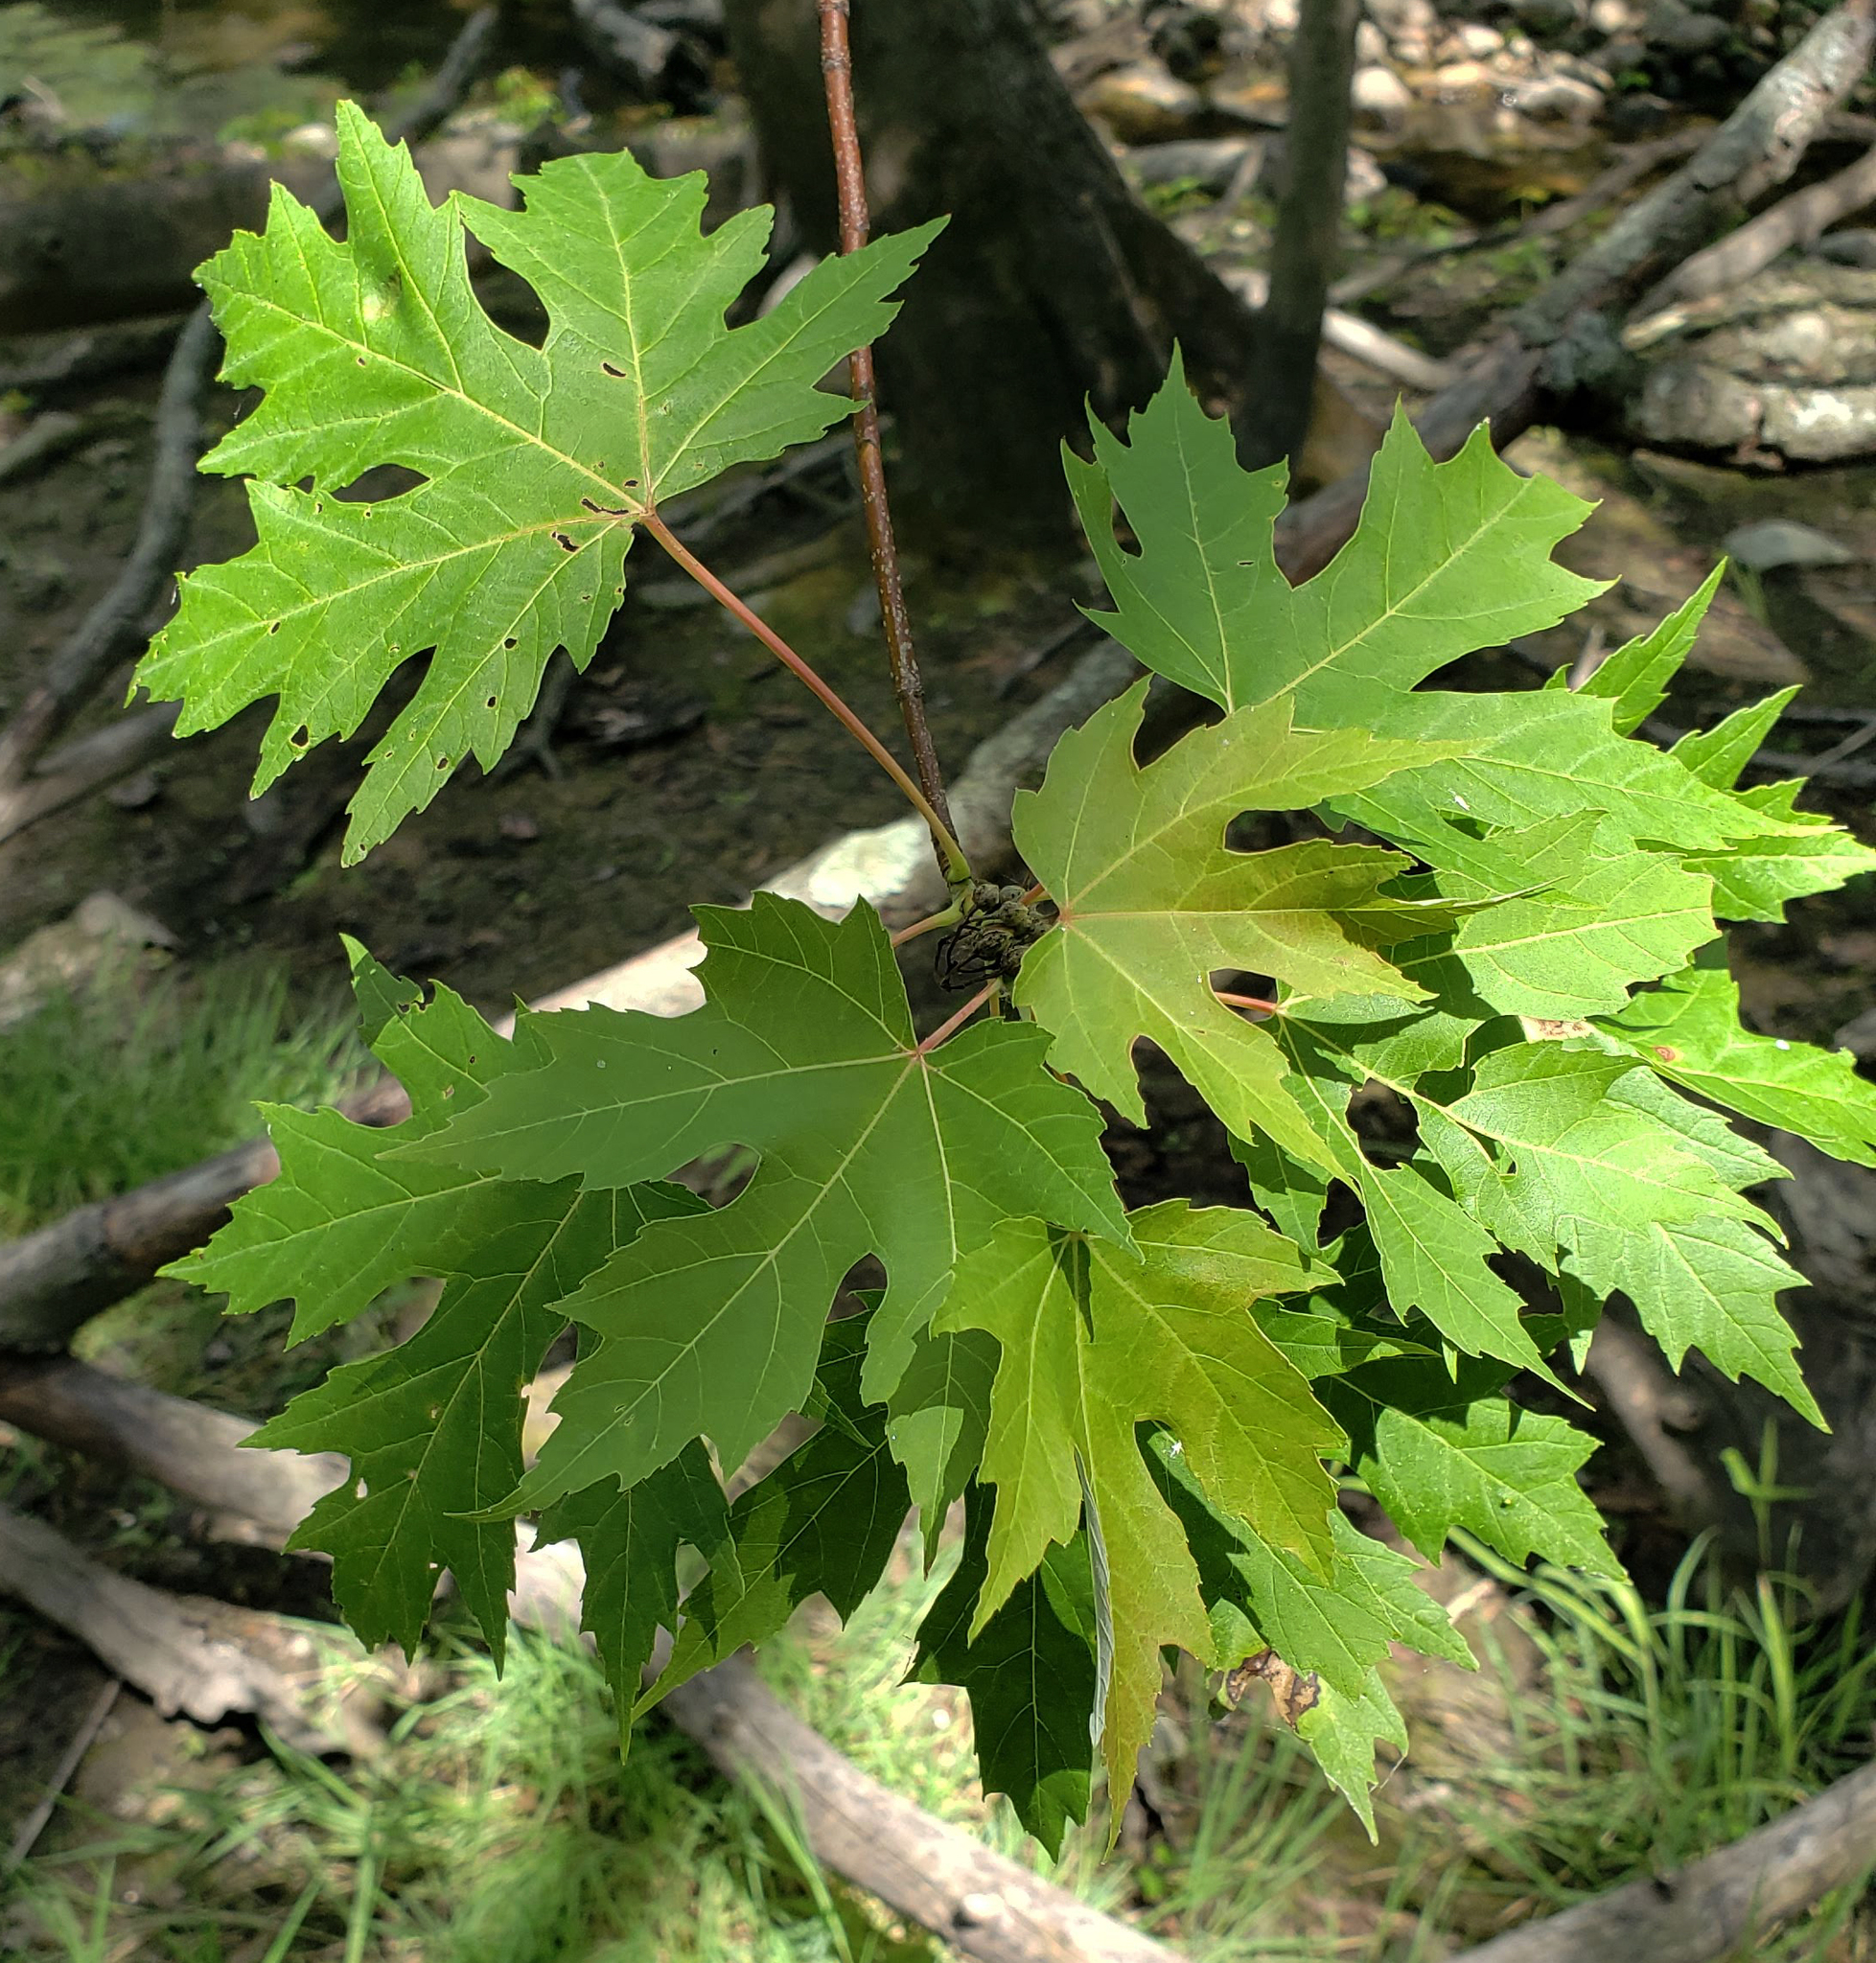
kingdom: Plantae
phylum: Tracheophyta
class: Magnoliopsida
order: Sapindales
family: Sapindaceae
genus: Acer
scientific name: Acer saccharinum
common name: Silver maple
